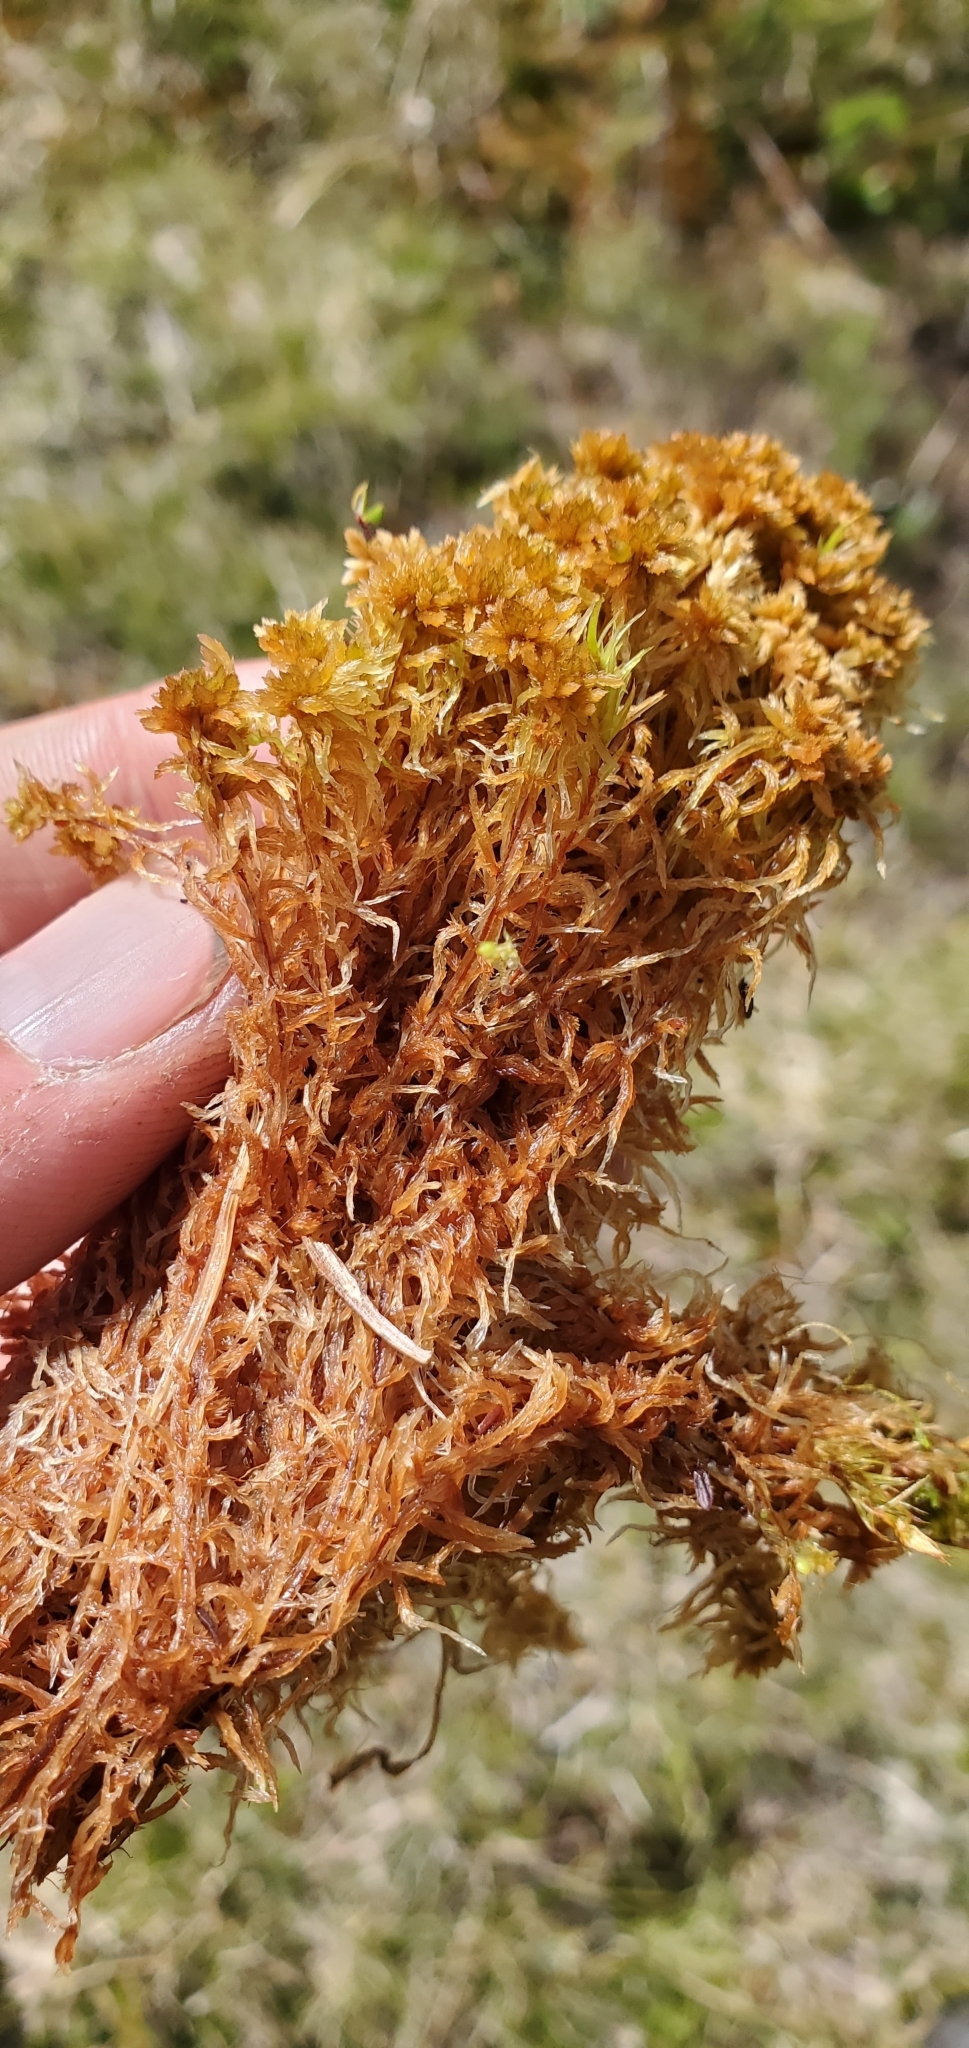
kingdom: Plantae
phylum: Bryophyta
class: Sphagnopsida
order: Sphagnales
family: Sphagnaceae
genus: Sphagnum
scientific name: Sphagnum fuscum
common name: Brown peat moss
